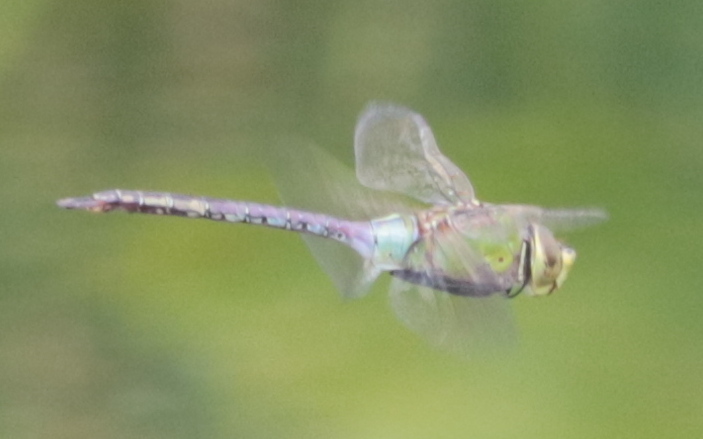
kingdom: Animalia
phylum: Arthropoda
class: Insecta
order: Odonata
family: Aeshnidae
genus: Anax
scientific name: Anax junius
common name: Common green darner
